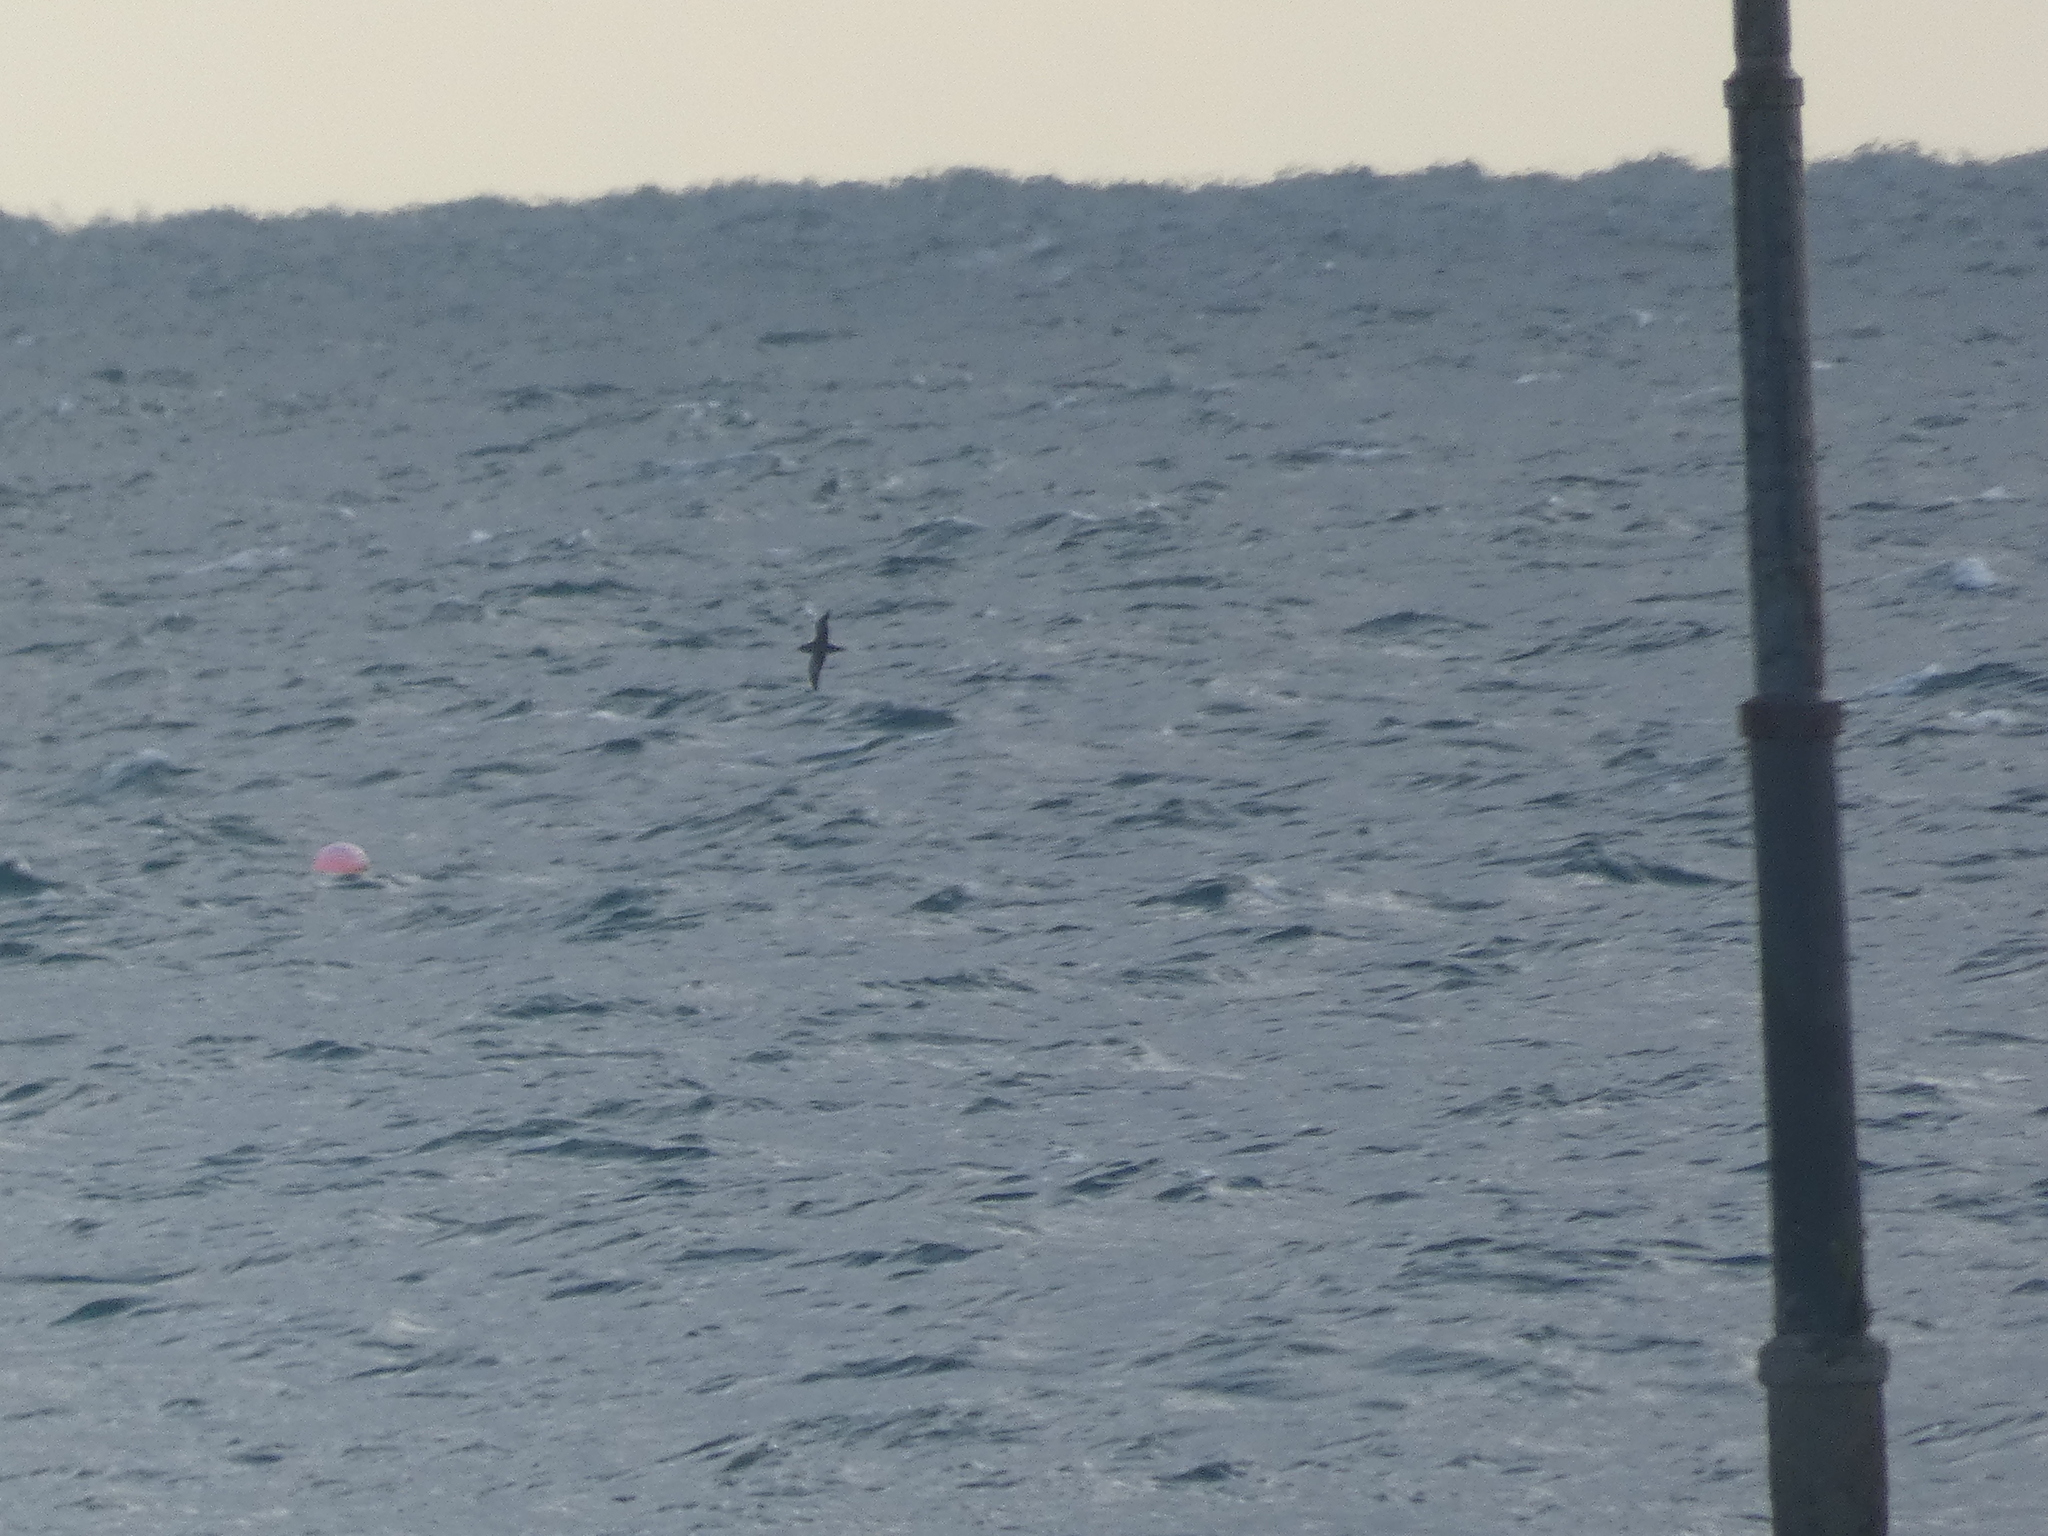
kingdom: Animalia
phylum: Chordata
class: Aves
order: Procellariiformes
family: Procellariidae
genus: Puffinus
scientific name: Puffinus griseus
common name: Sooty shearwater
